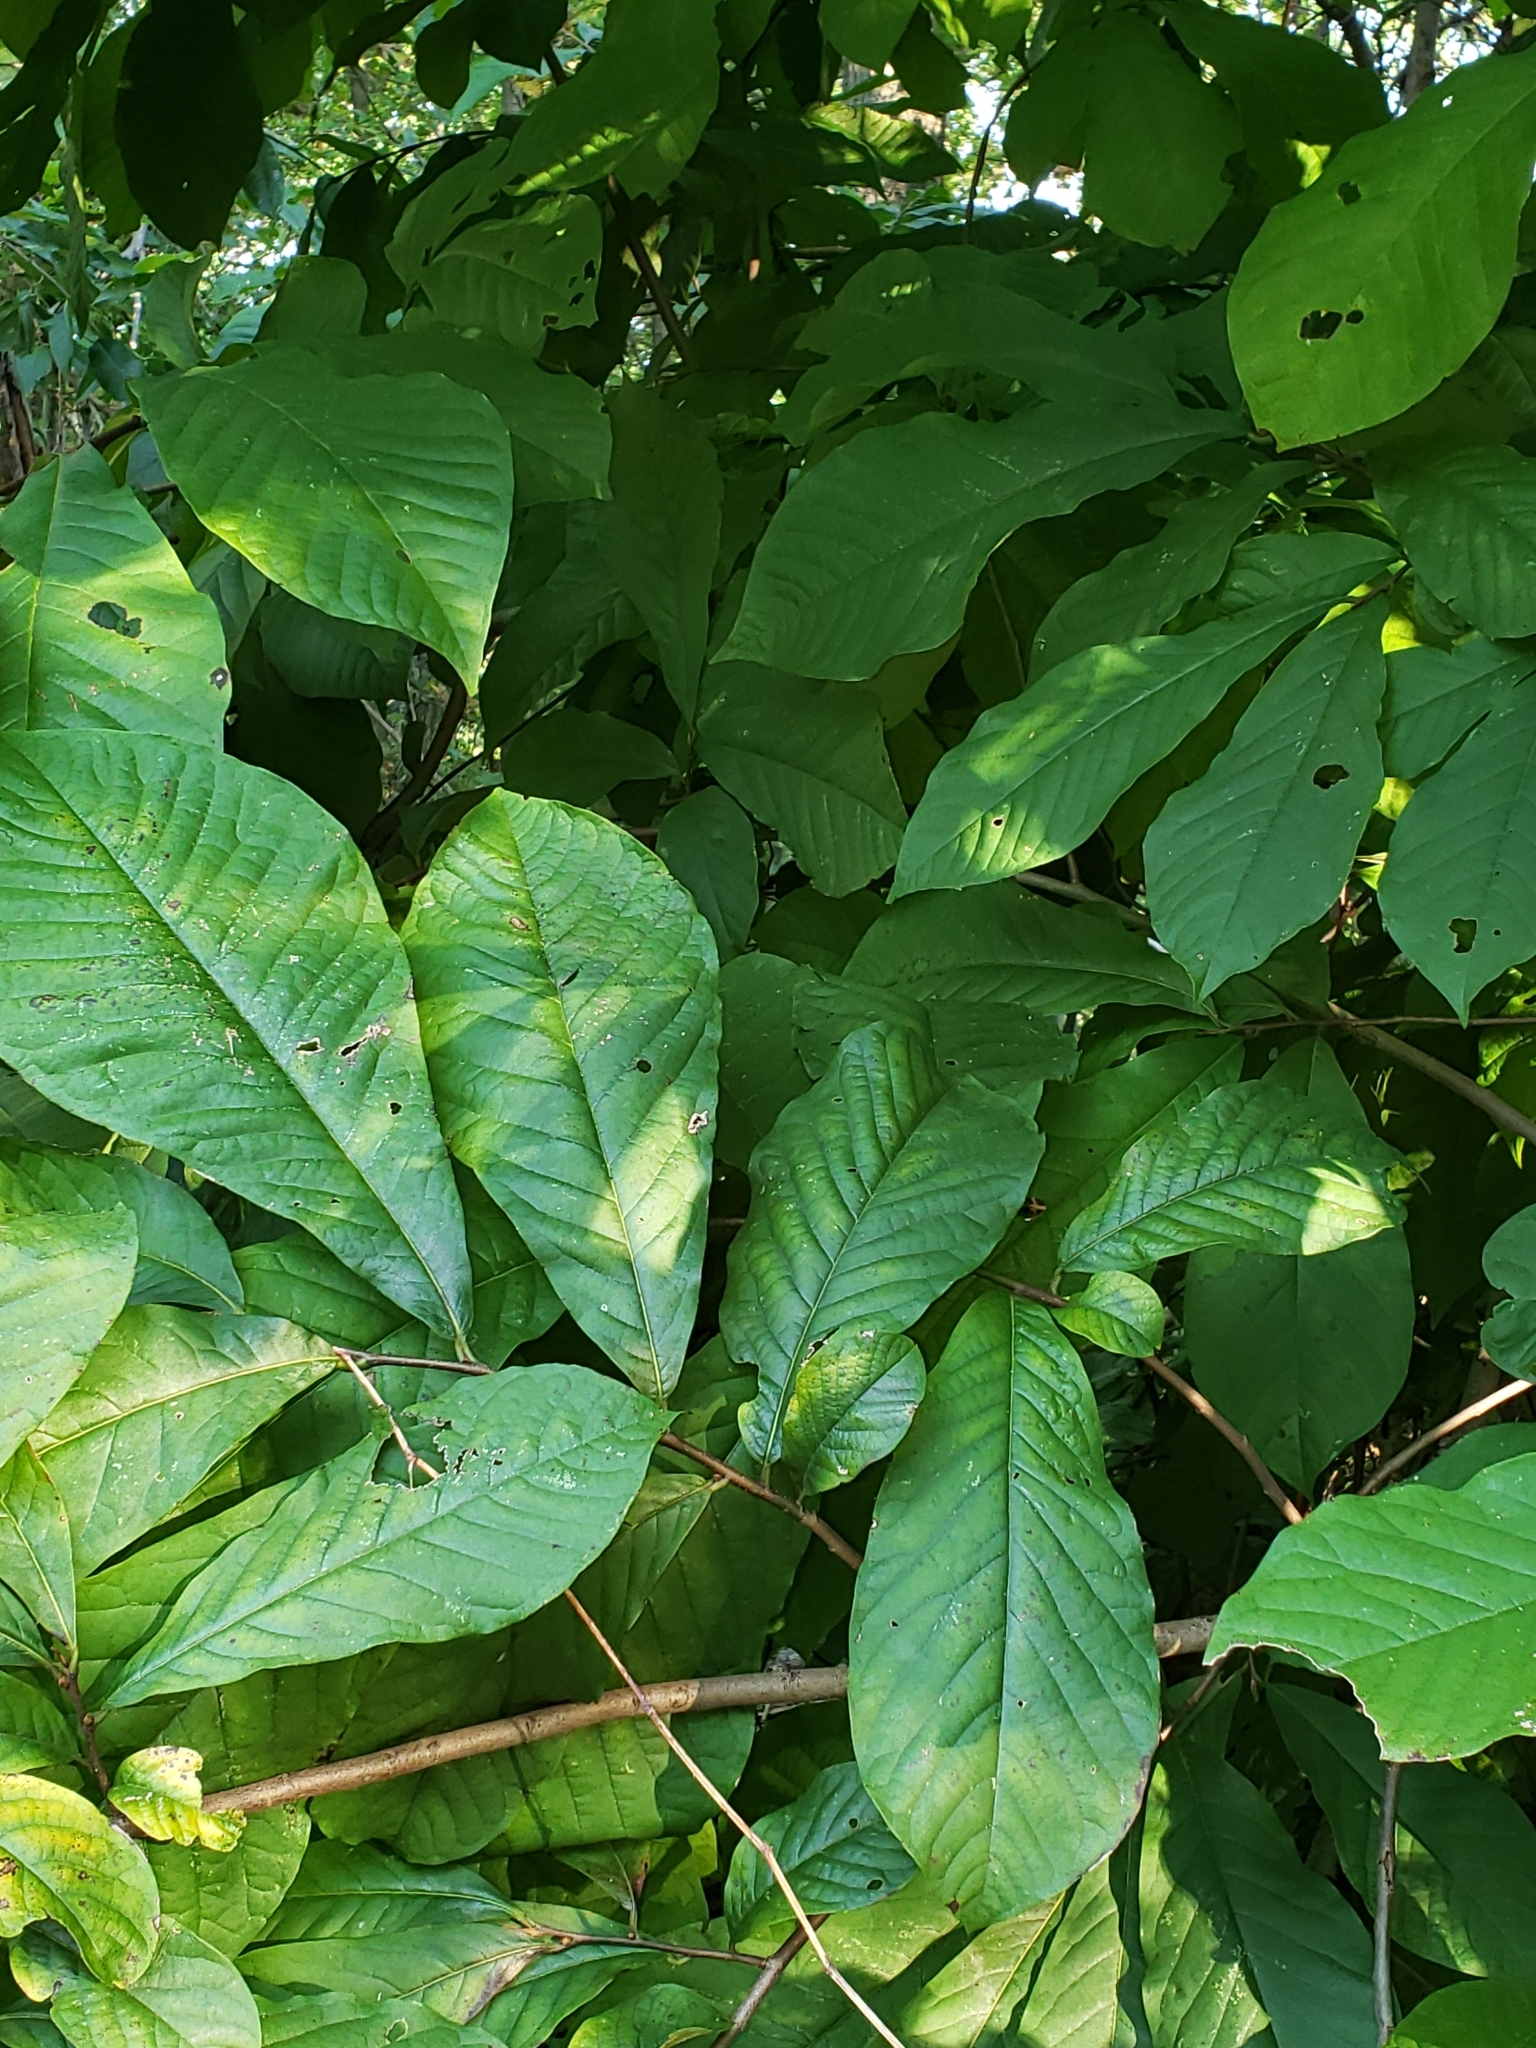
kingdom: Plantae
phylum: Tracheophyta
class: Magnoliopsida
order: Magnoliales
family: Annonaceae
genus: Asimina
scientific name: Asimina triloba
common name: Dog-banana
